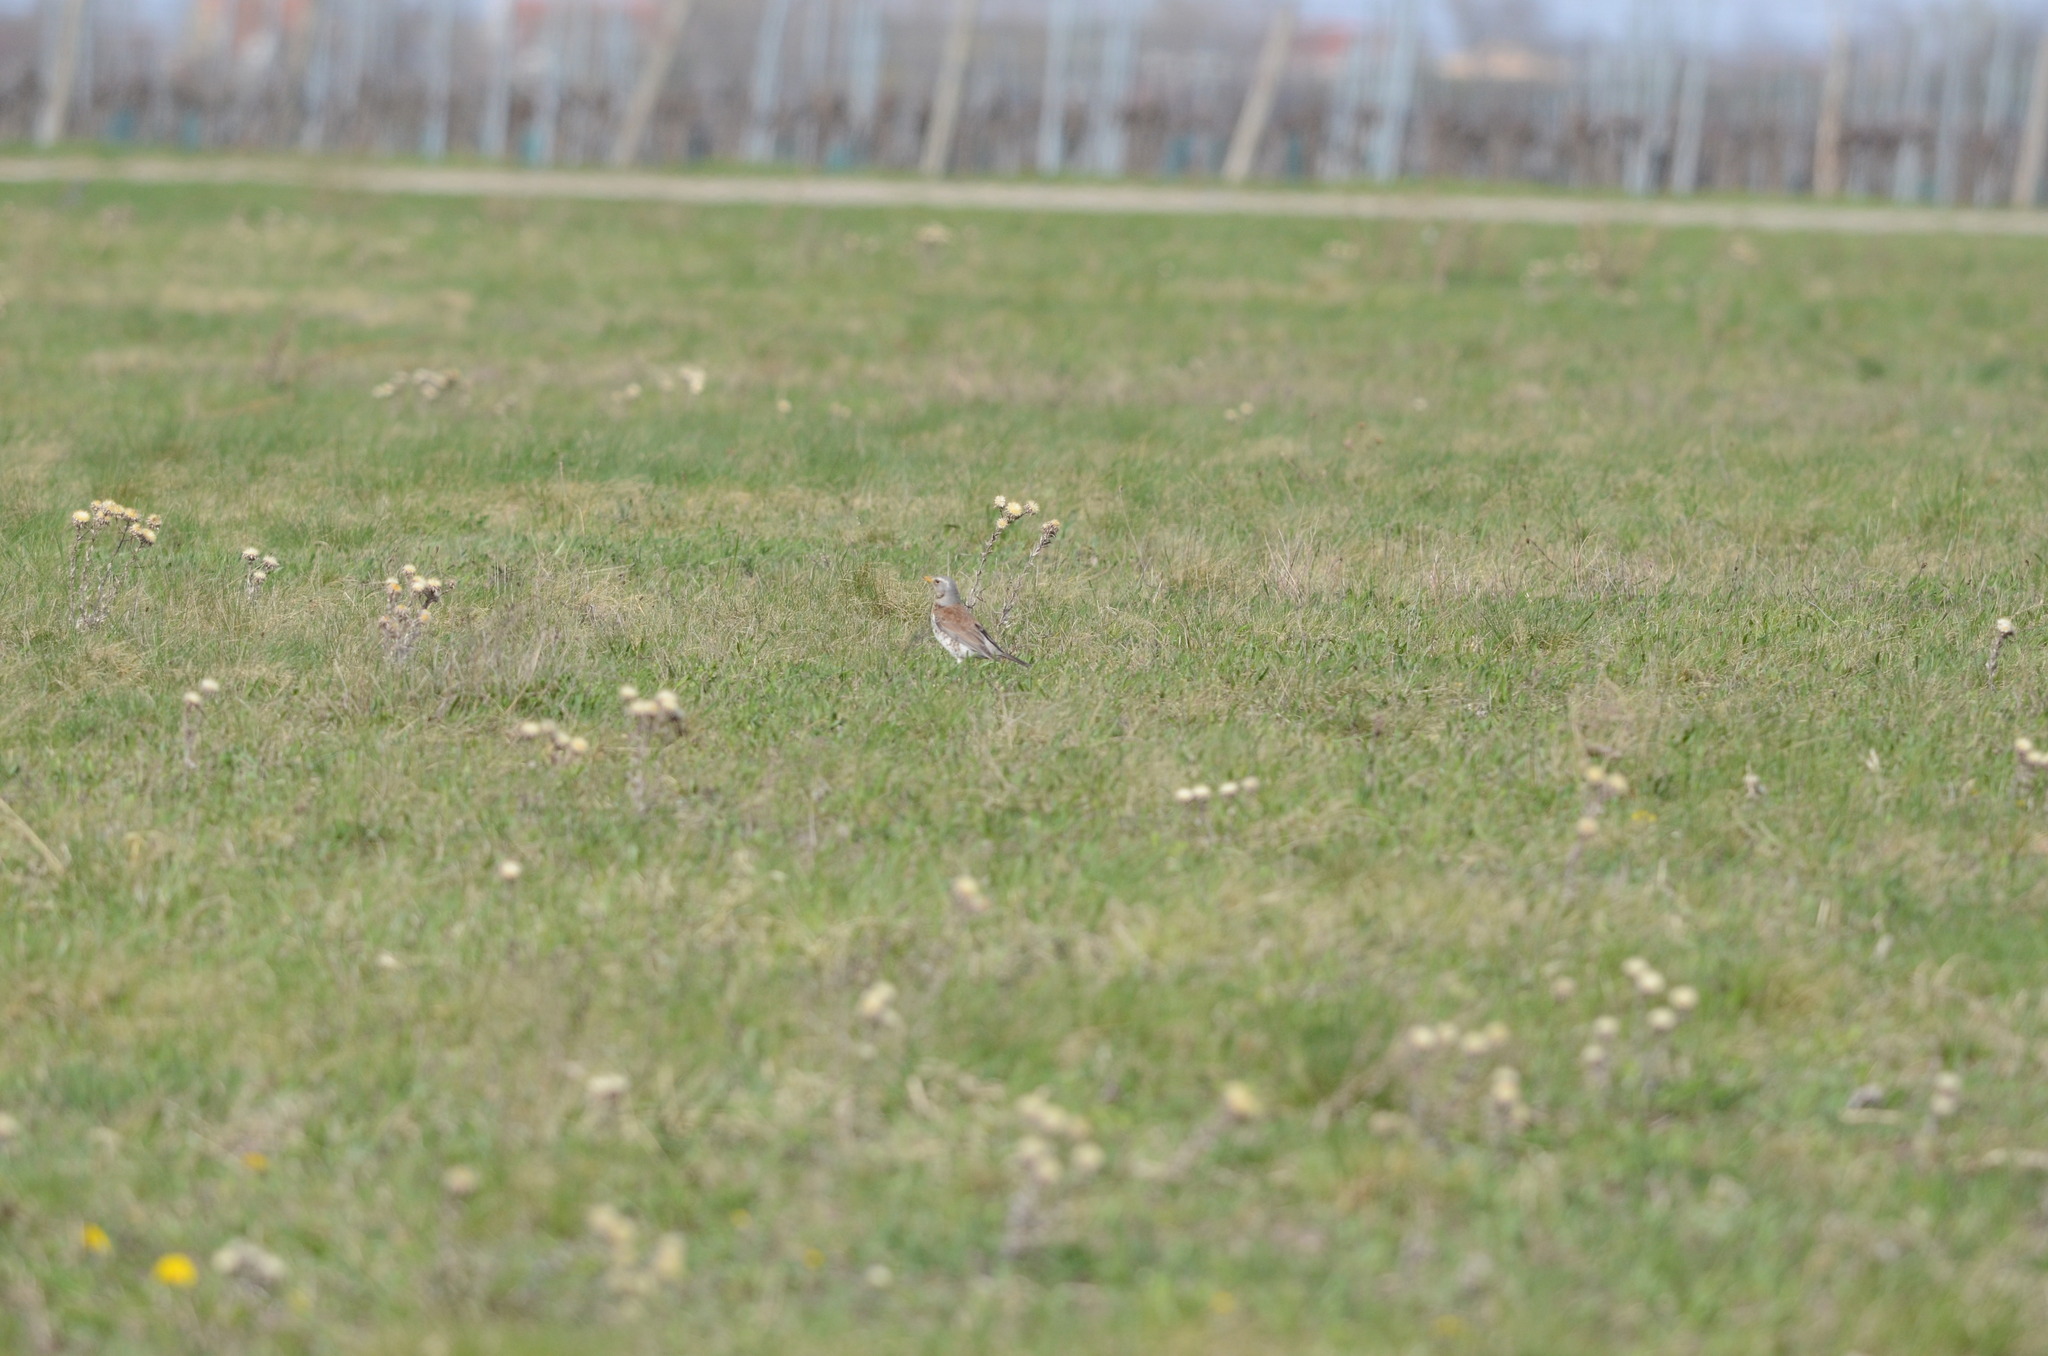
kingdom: Animalia
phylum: Chordata
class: Aves
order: Passeriformes
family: Turdidae
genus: Turdus
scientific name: Turdus pilaris
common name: Fieldfare
